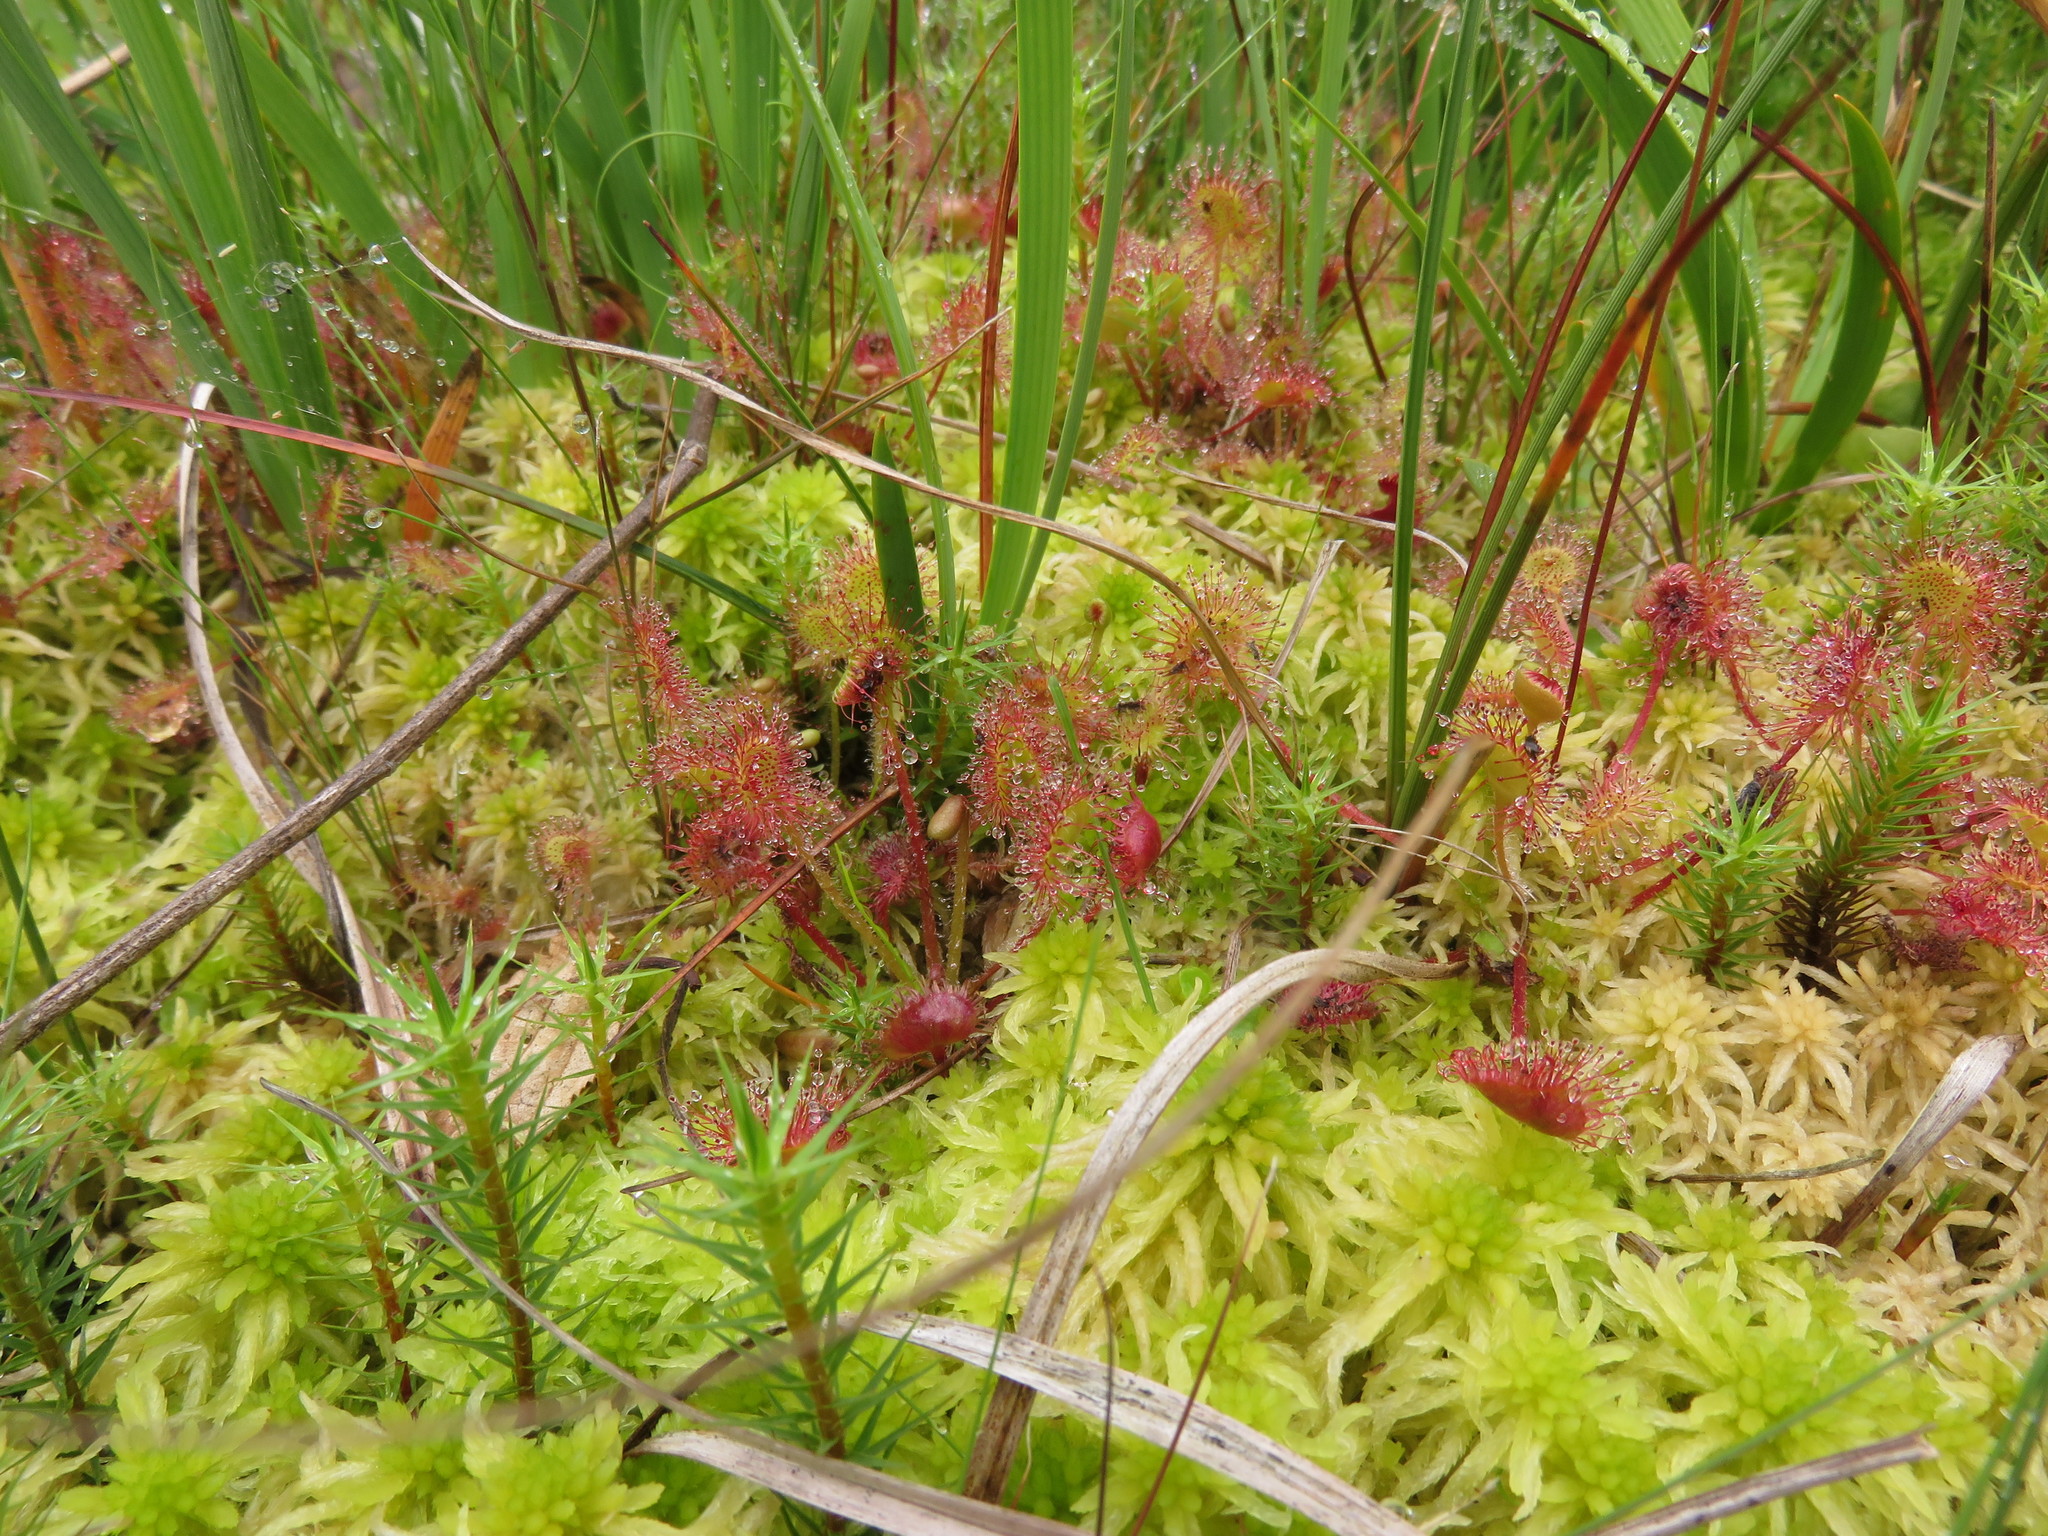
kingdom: Plantae
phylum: Tracheophyta
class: Magnoliopsida
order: Caryophyllales
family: Droseraceae
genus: Drosera
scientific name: Drosera rotundifolia
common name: Round-leaved sundew
